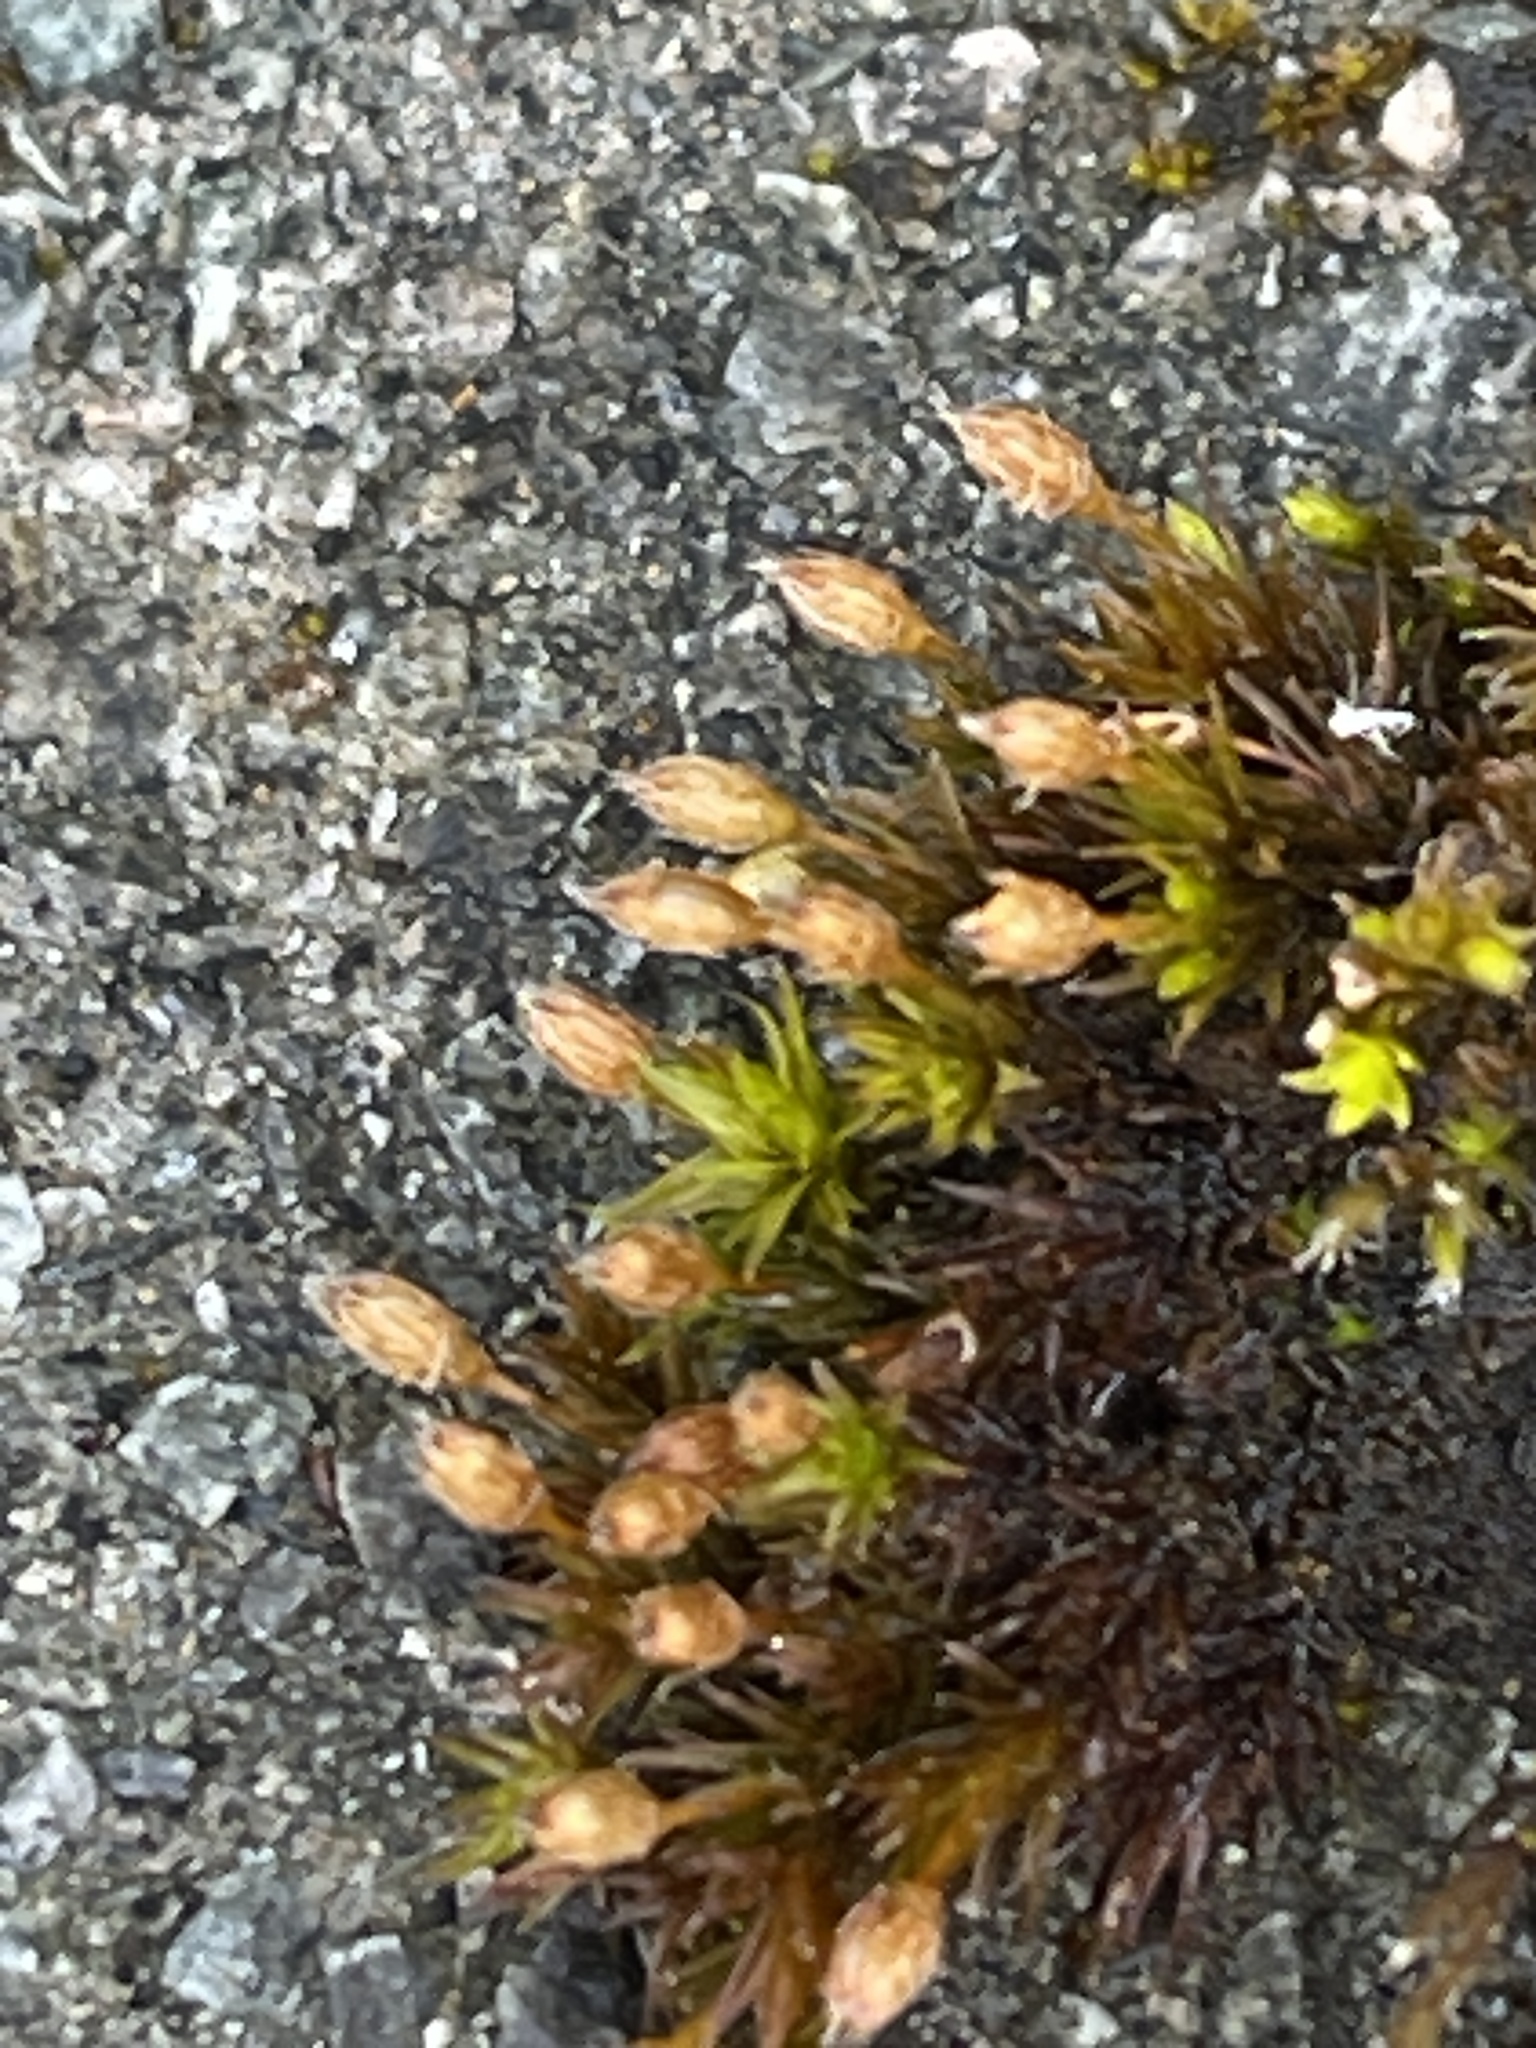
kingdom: Plantae
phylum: Bryophyta
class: Bryopsida
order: Orthotrichales
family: Orthotrichaceae
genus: Orthotrichum
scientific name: Orthotrichum anomalum
